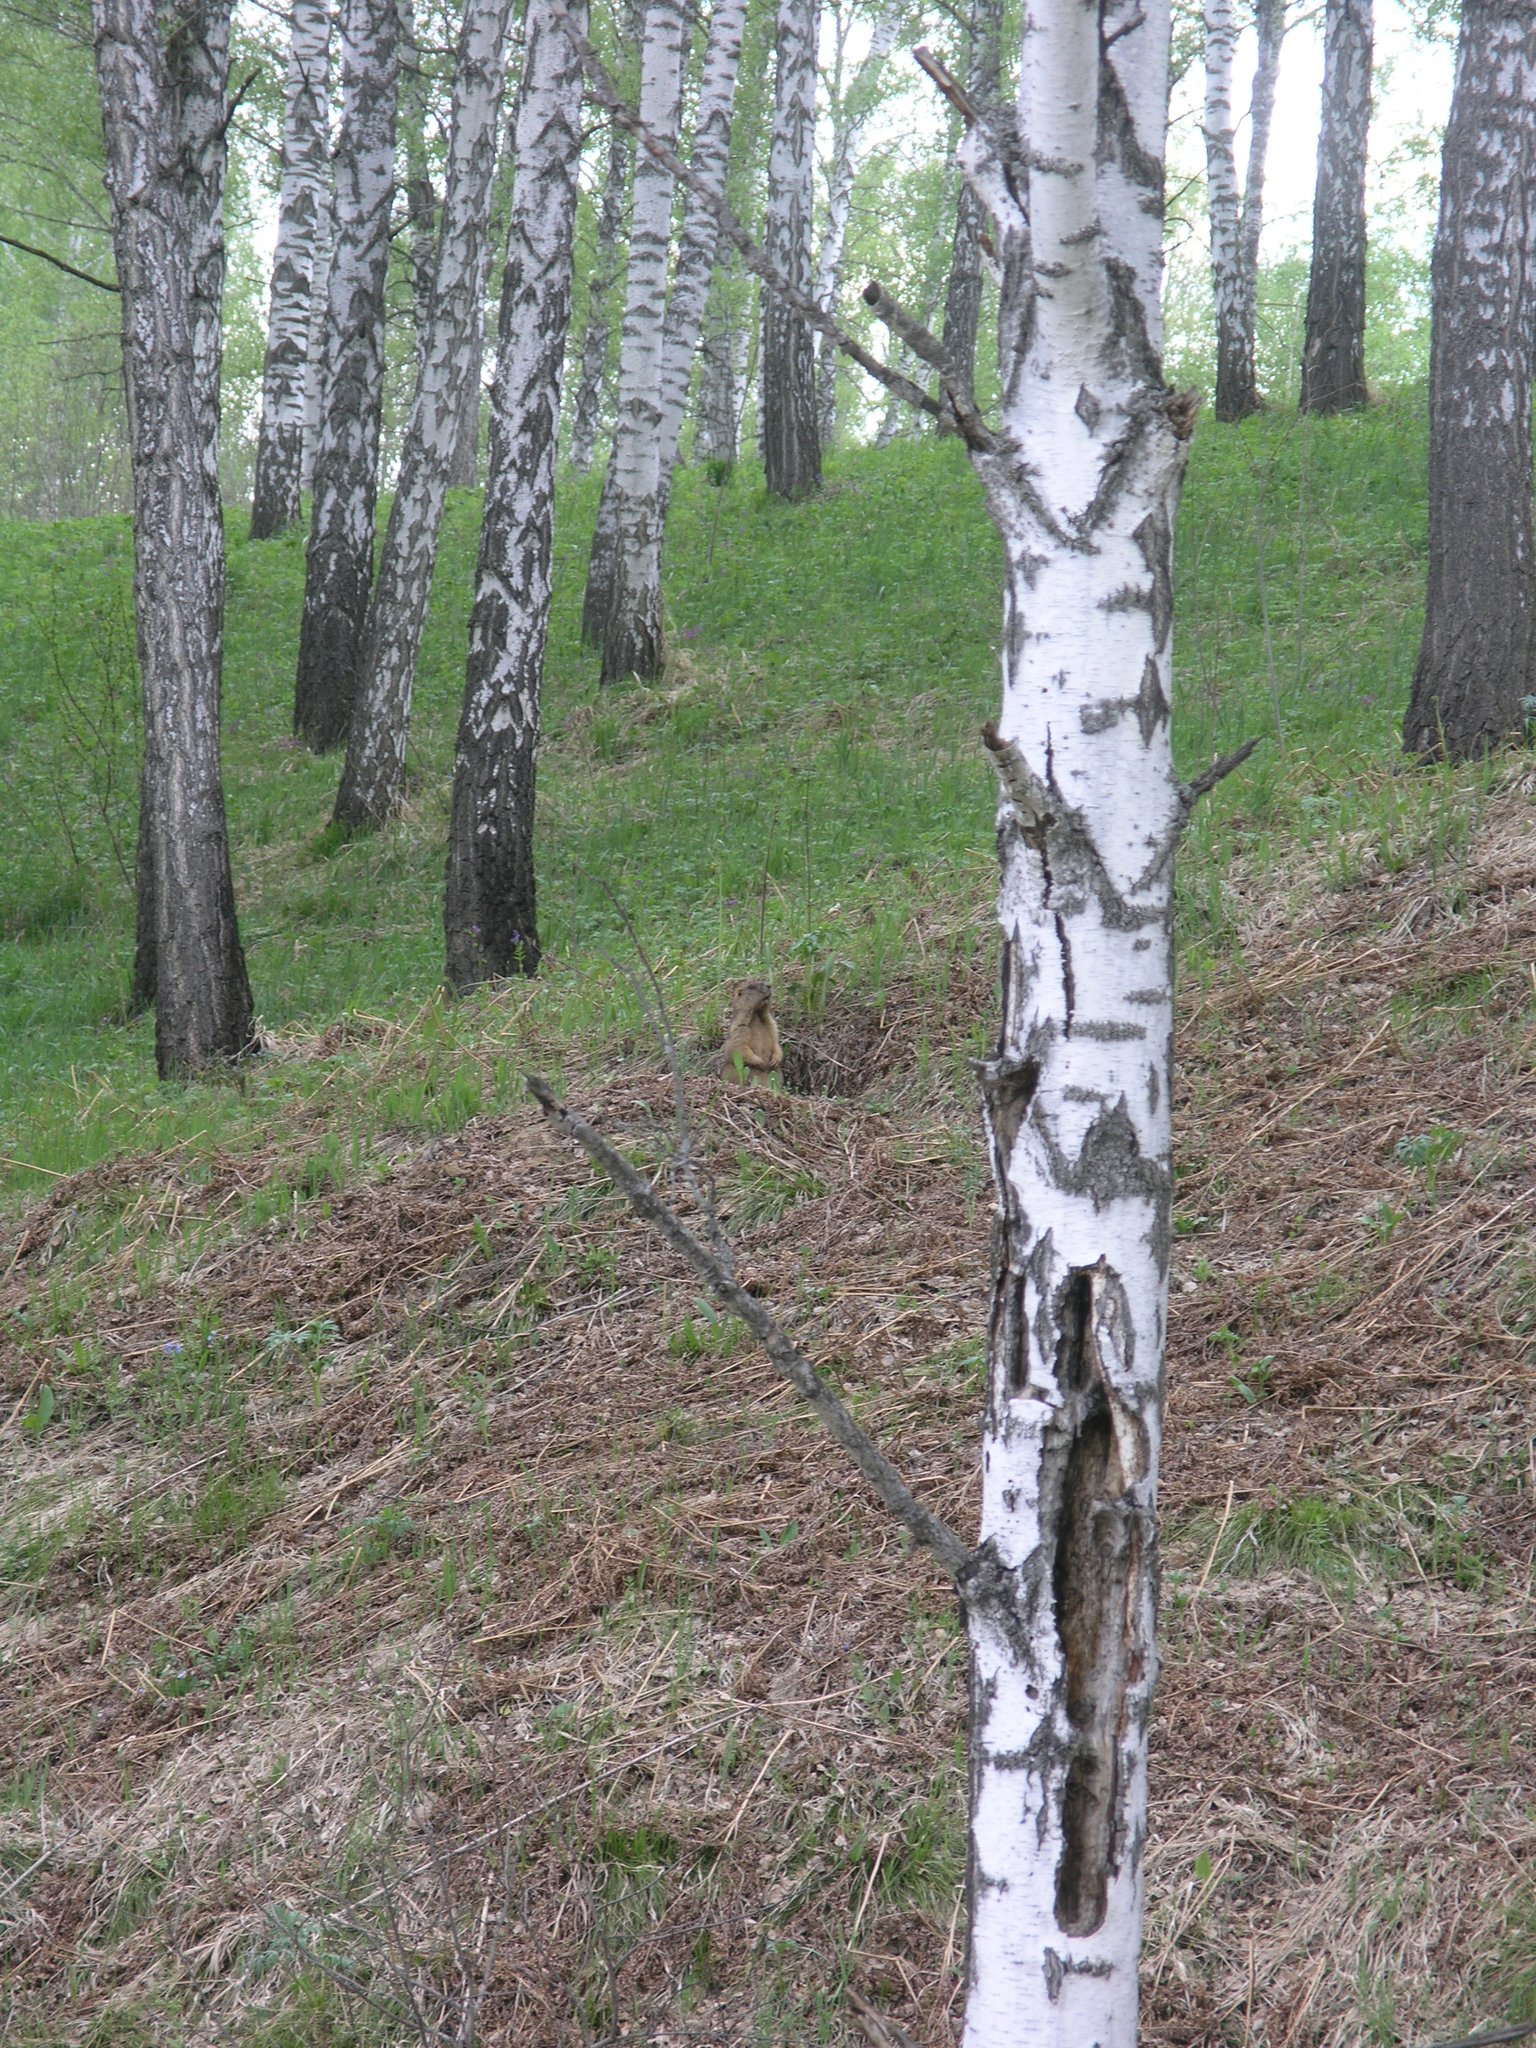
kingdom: Plantae
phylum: Tracheophyta
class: Magnoliopsida
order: Fagales
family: Betulaceae
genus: Betula
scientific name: Betula pendula
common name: Silver birch
